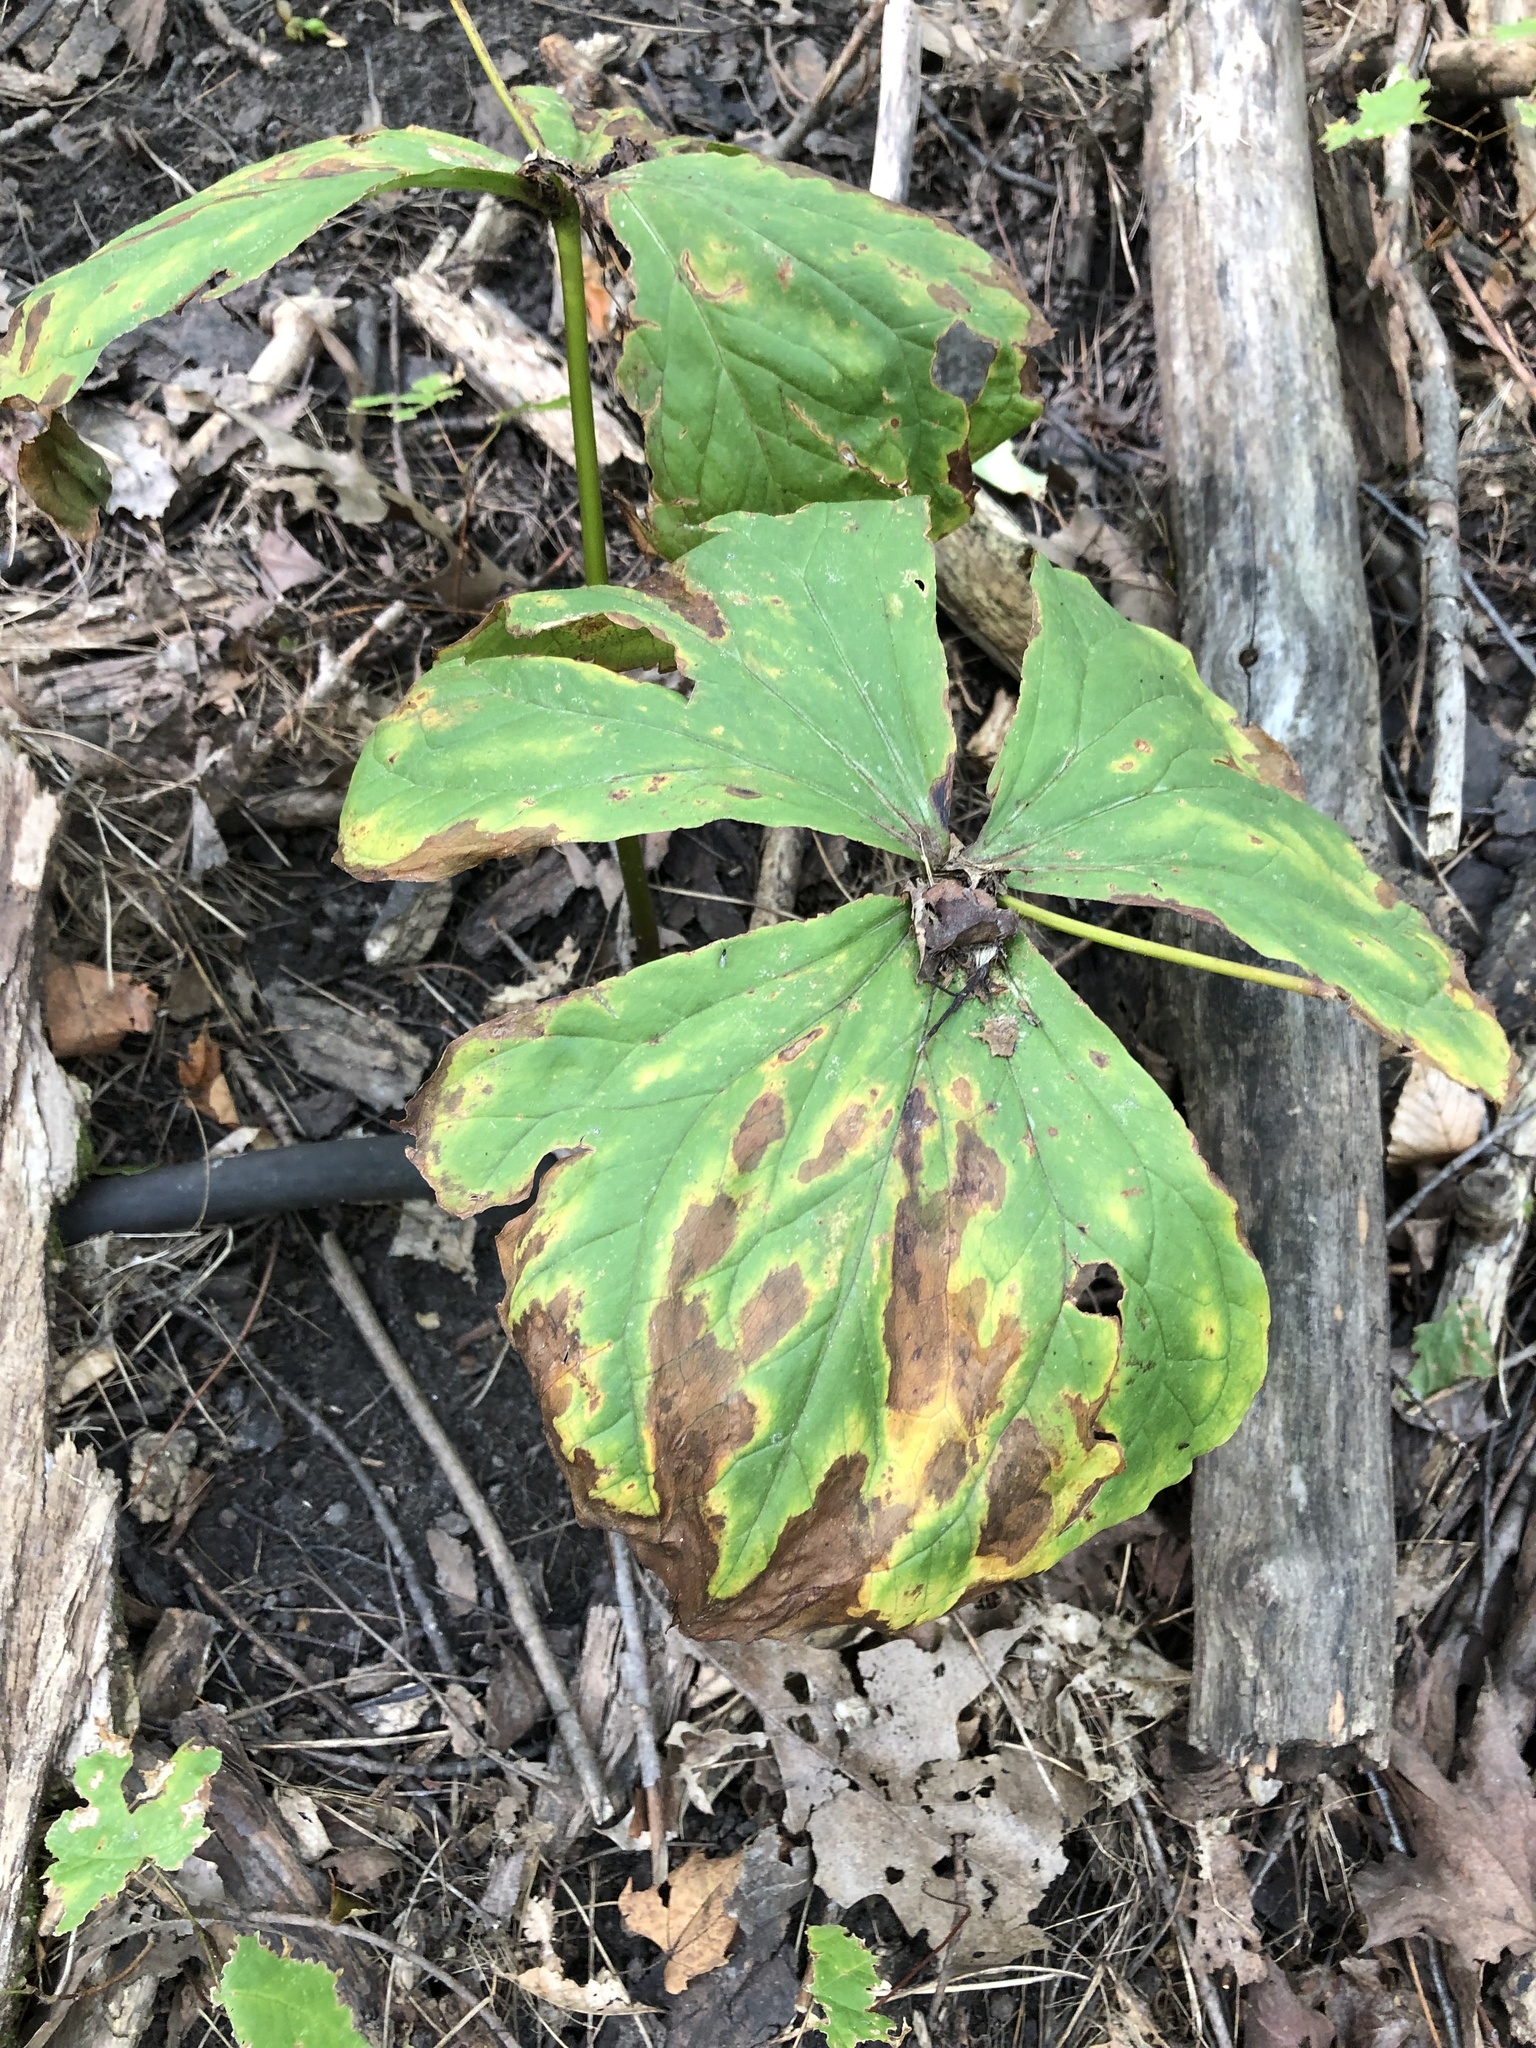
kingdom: Plantae
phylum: Tracheophyta
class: Liliopsida
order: Liliales
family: Melanthiaceae
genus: Trillium
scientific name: Trillium erectum
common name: Purple trillium
